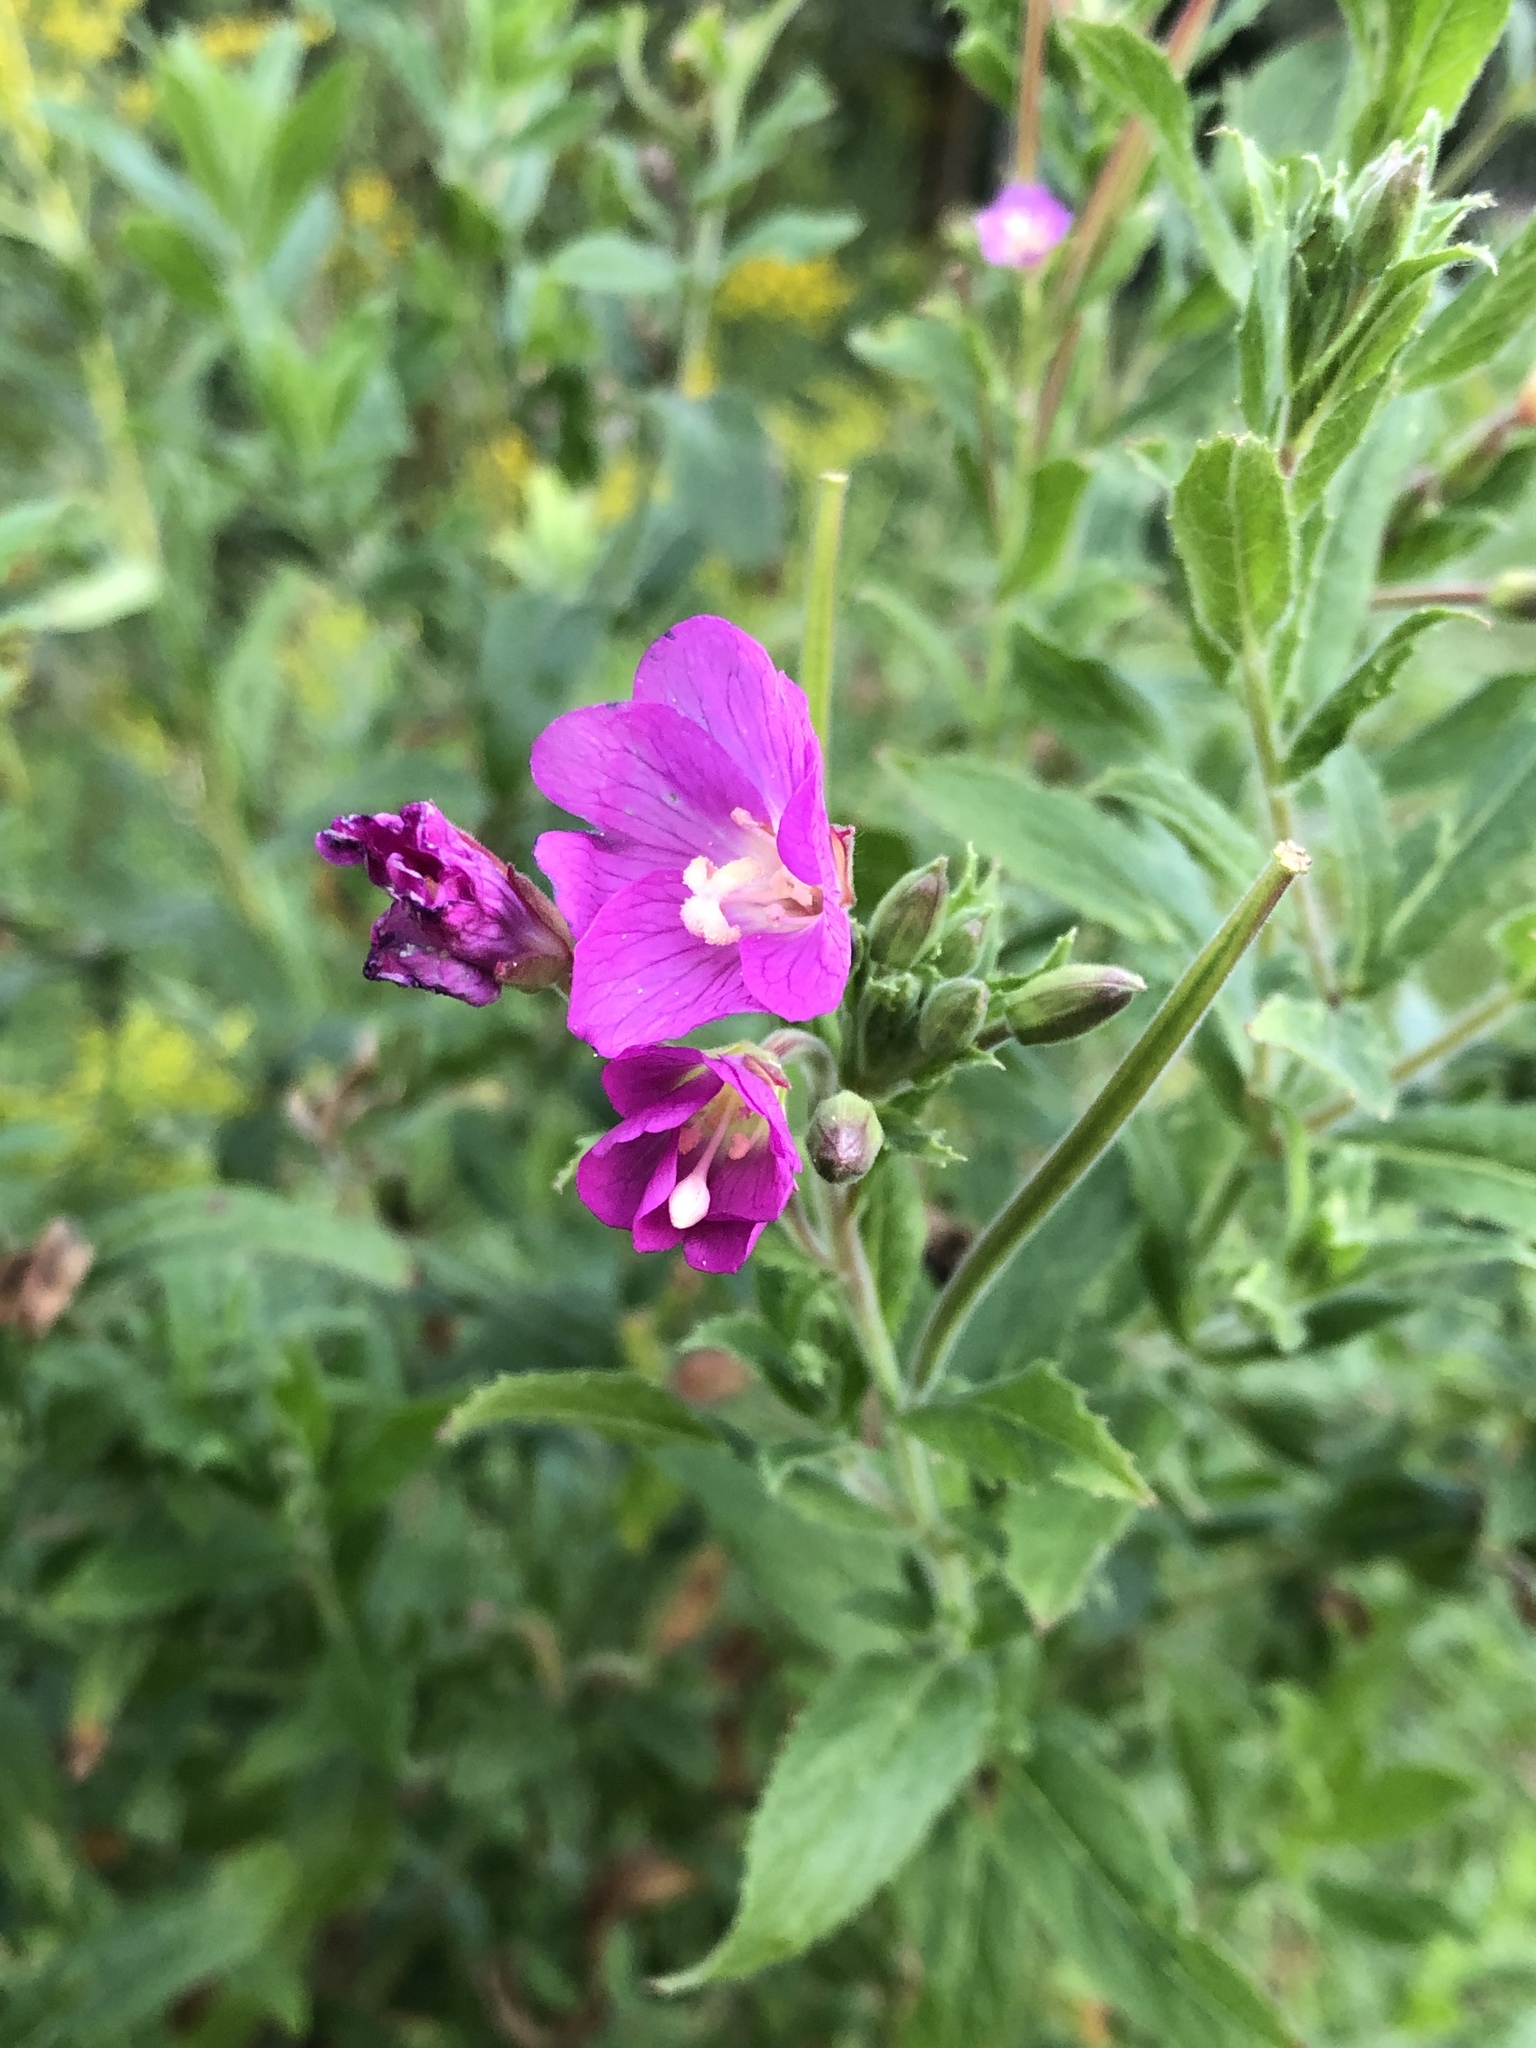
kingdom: Plantae
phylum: Tracheophyta
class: Magnoliopsida
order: Myrtales
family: Onagraceae
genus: Epilobium
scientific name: Epilobium hirsutum
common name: Great willowherb
